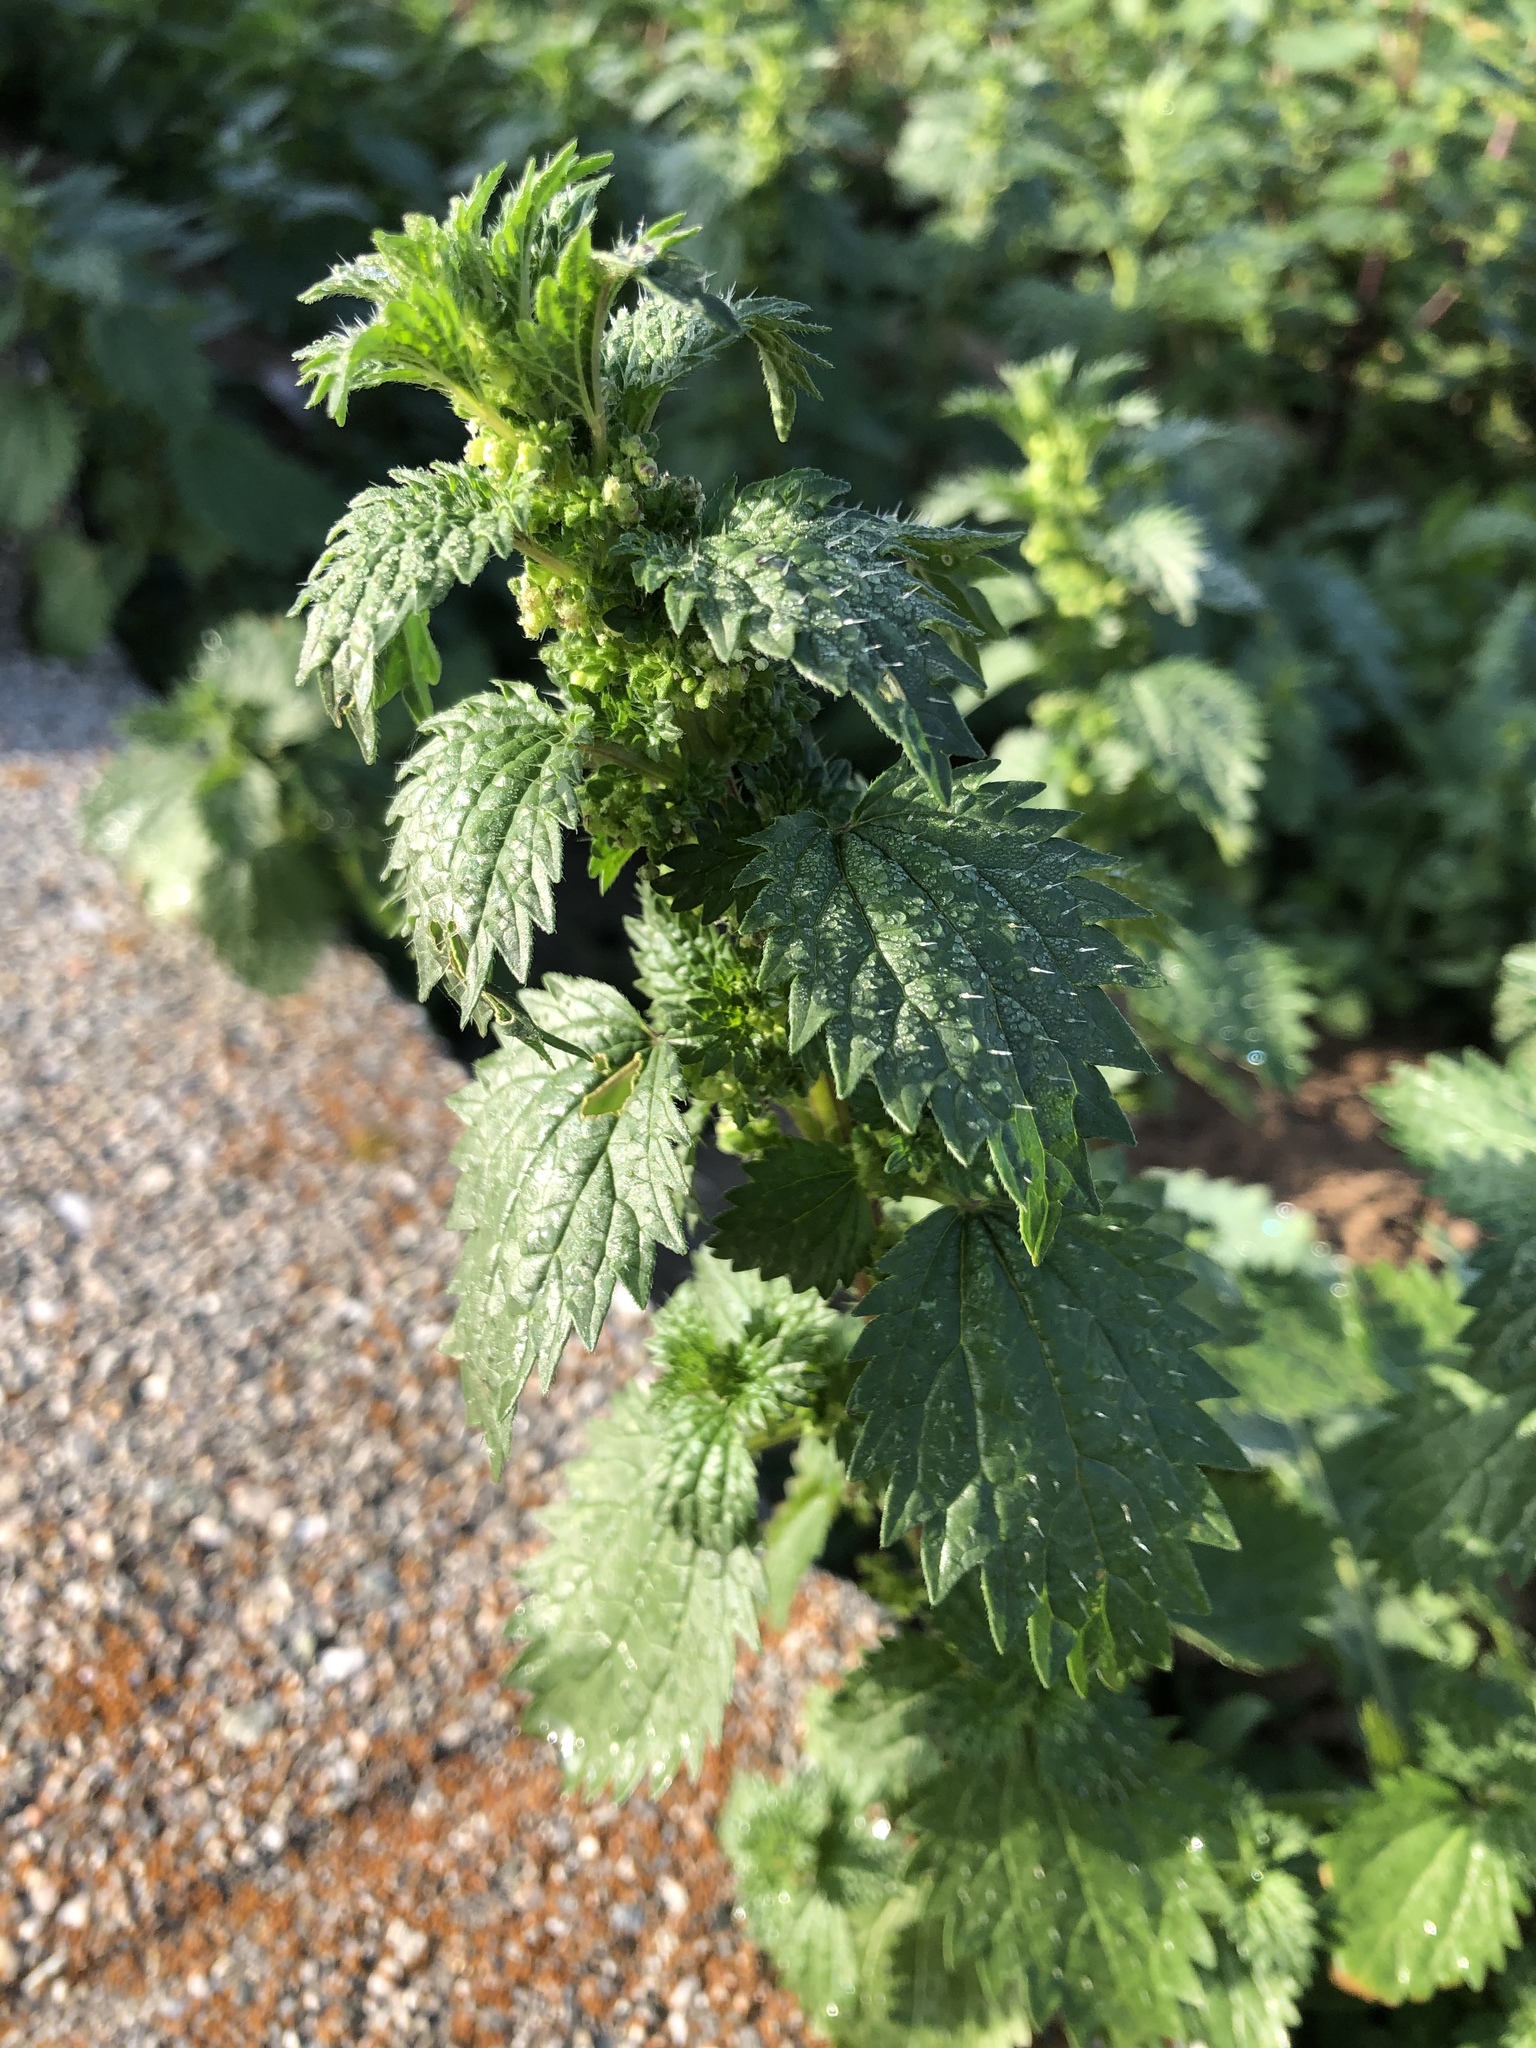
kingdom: Plantae
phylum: Tracheophyta
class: Magnoliopsida
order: Rosales
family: Urticaceae
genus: Urtica
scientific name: Urtica urens
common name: Dwarf nettle
